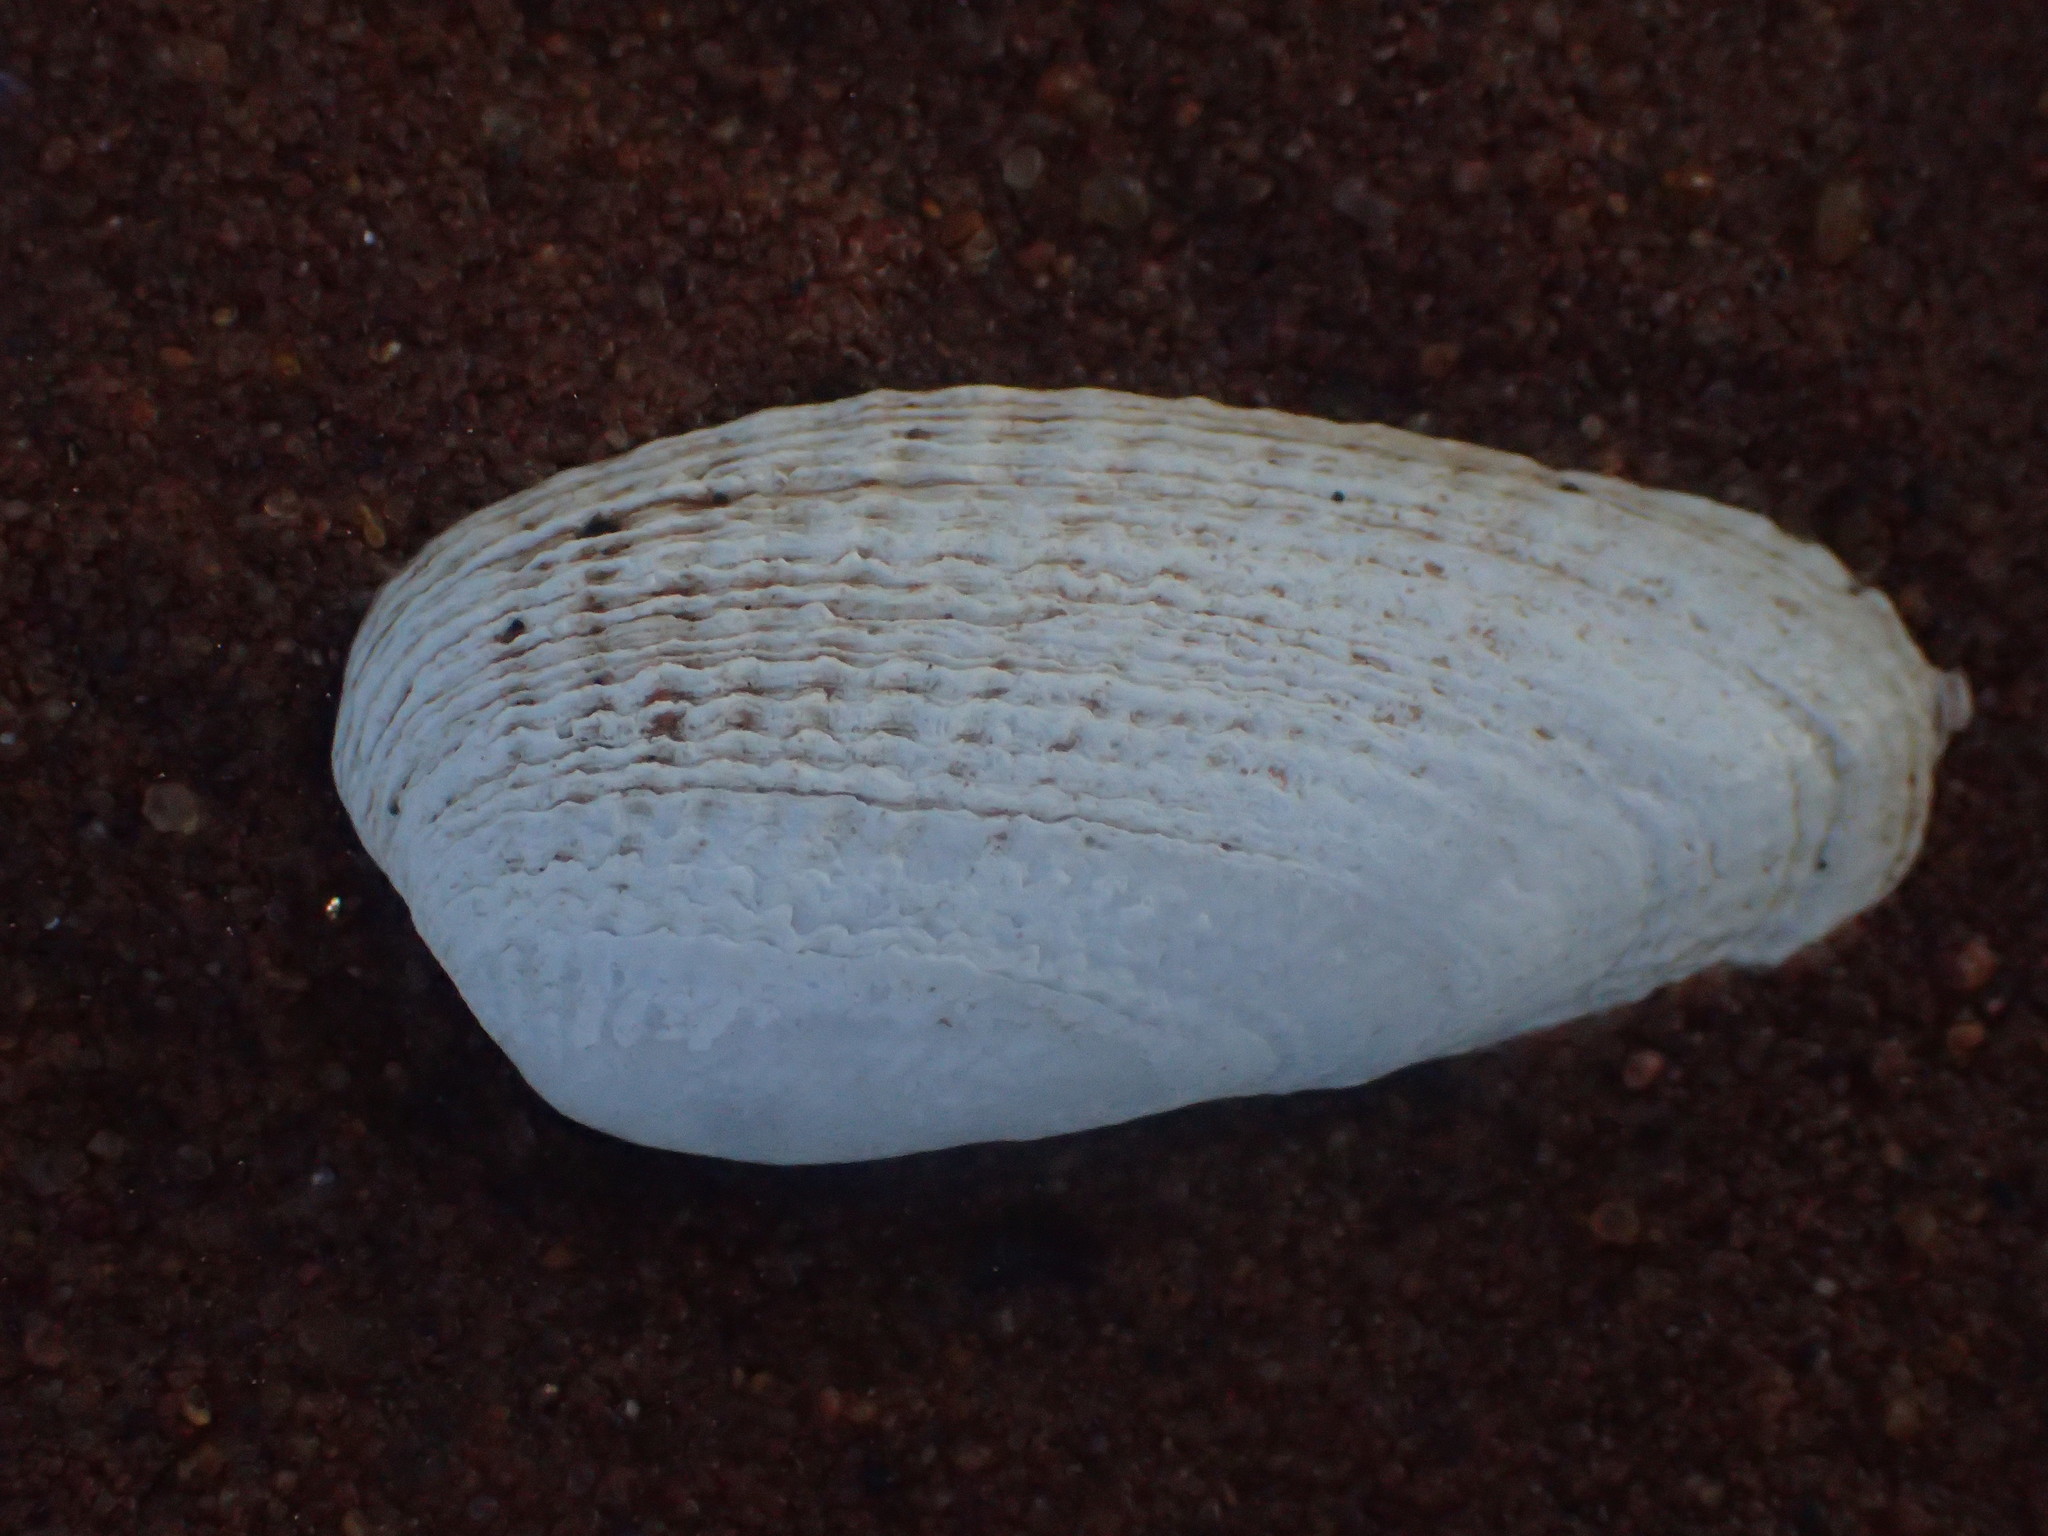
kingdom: Animalia
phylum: Mollusca
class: Bivalvia
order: Venerida
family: Veneridae
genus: Petricolaria
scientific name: Petricolaria pholadiformis
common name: American piddock
